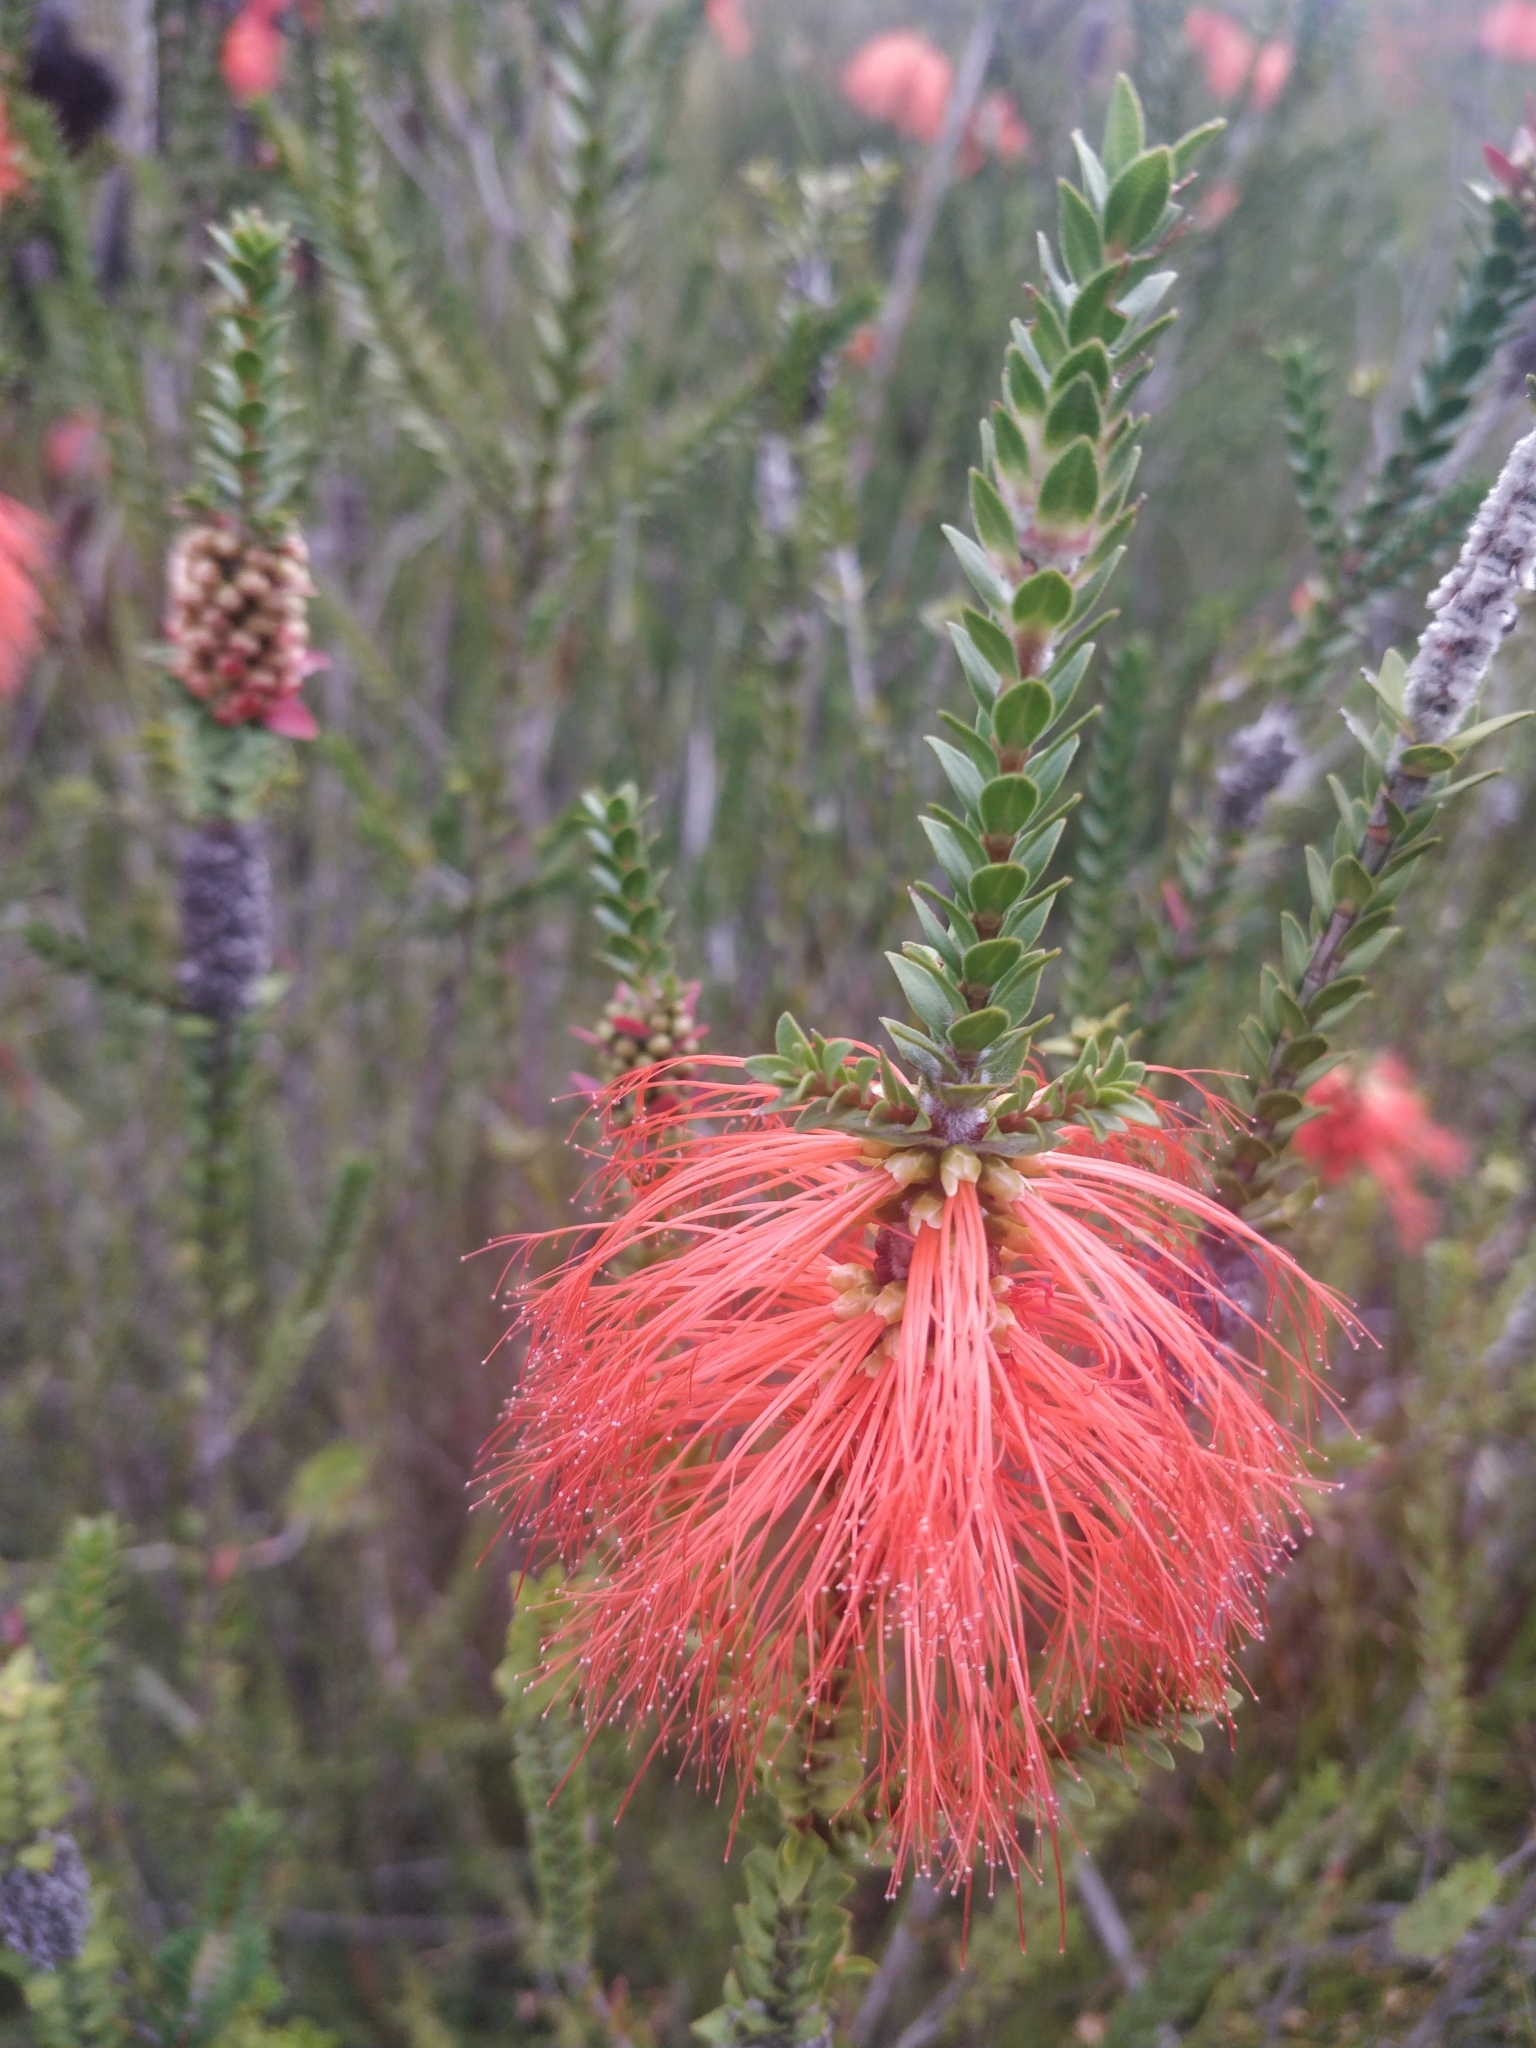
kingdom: Plantae
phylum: Tracheophyta
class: Magnoliopsida
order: Myrtales
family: Myrtaceae
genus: Melaleuca
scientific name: Melaleuca sparsa
